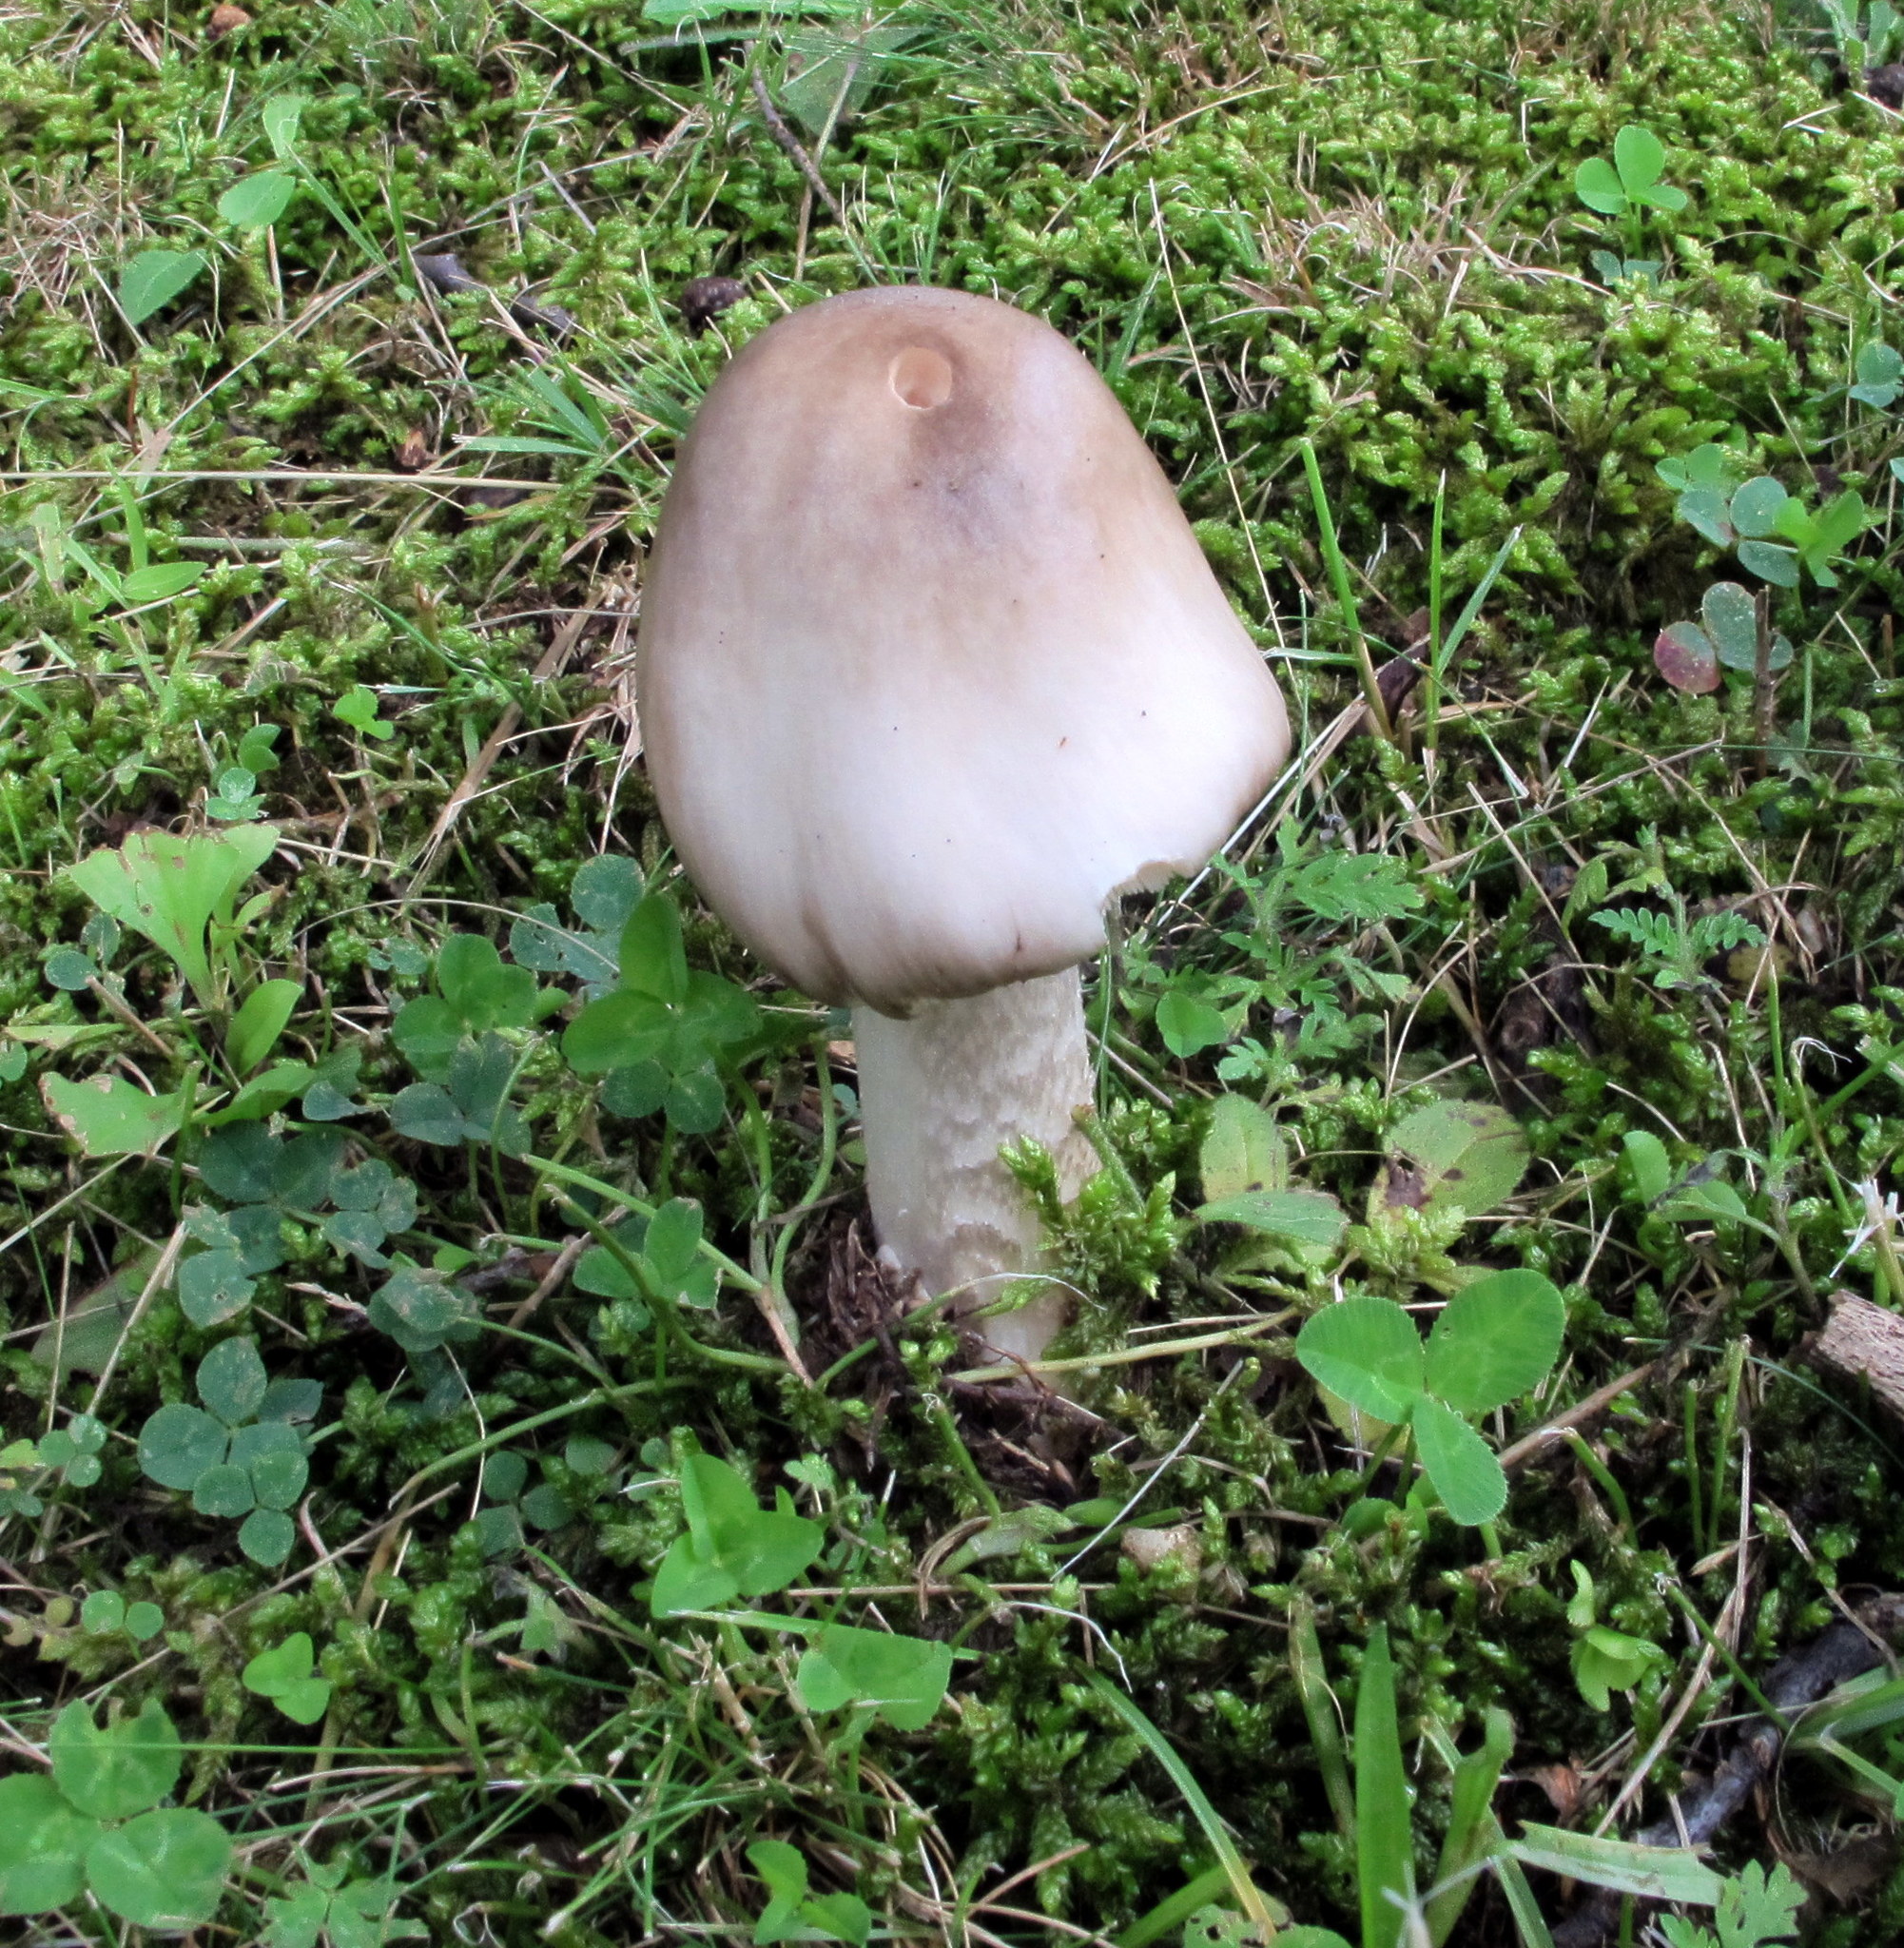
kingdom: Fungi
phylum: Basidiomycota
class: Agaricomycetes
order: Agaricales
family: Amanitaceae
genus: Amanita
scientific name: Amanita submaculata
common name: Ball gown amanita
